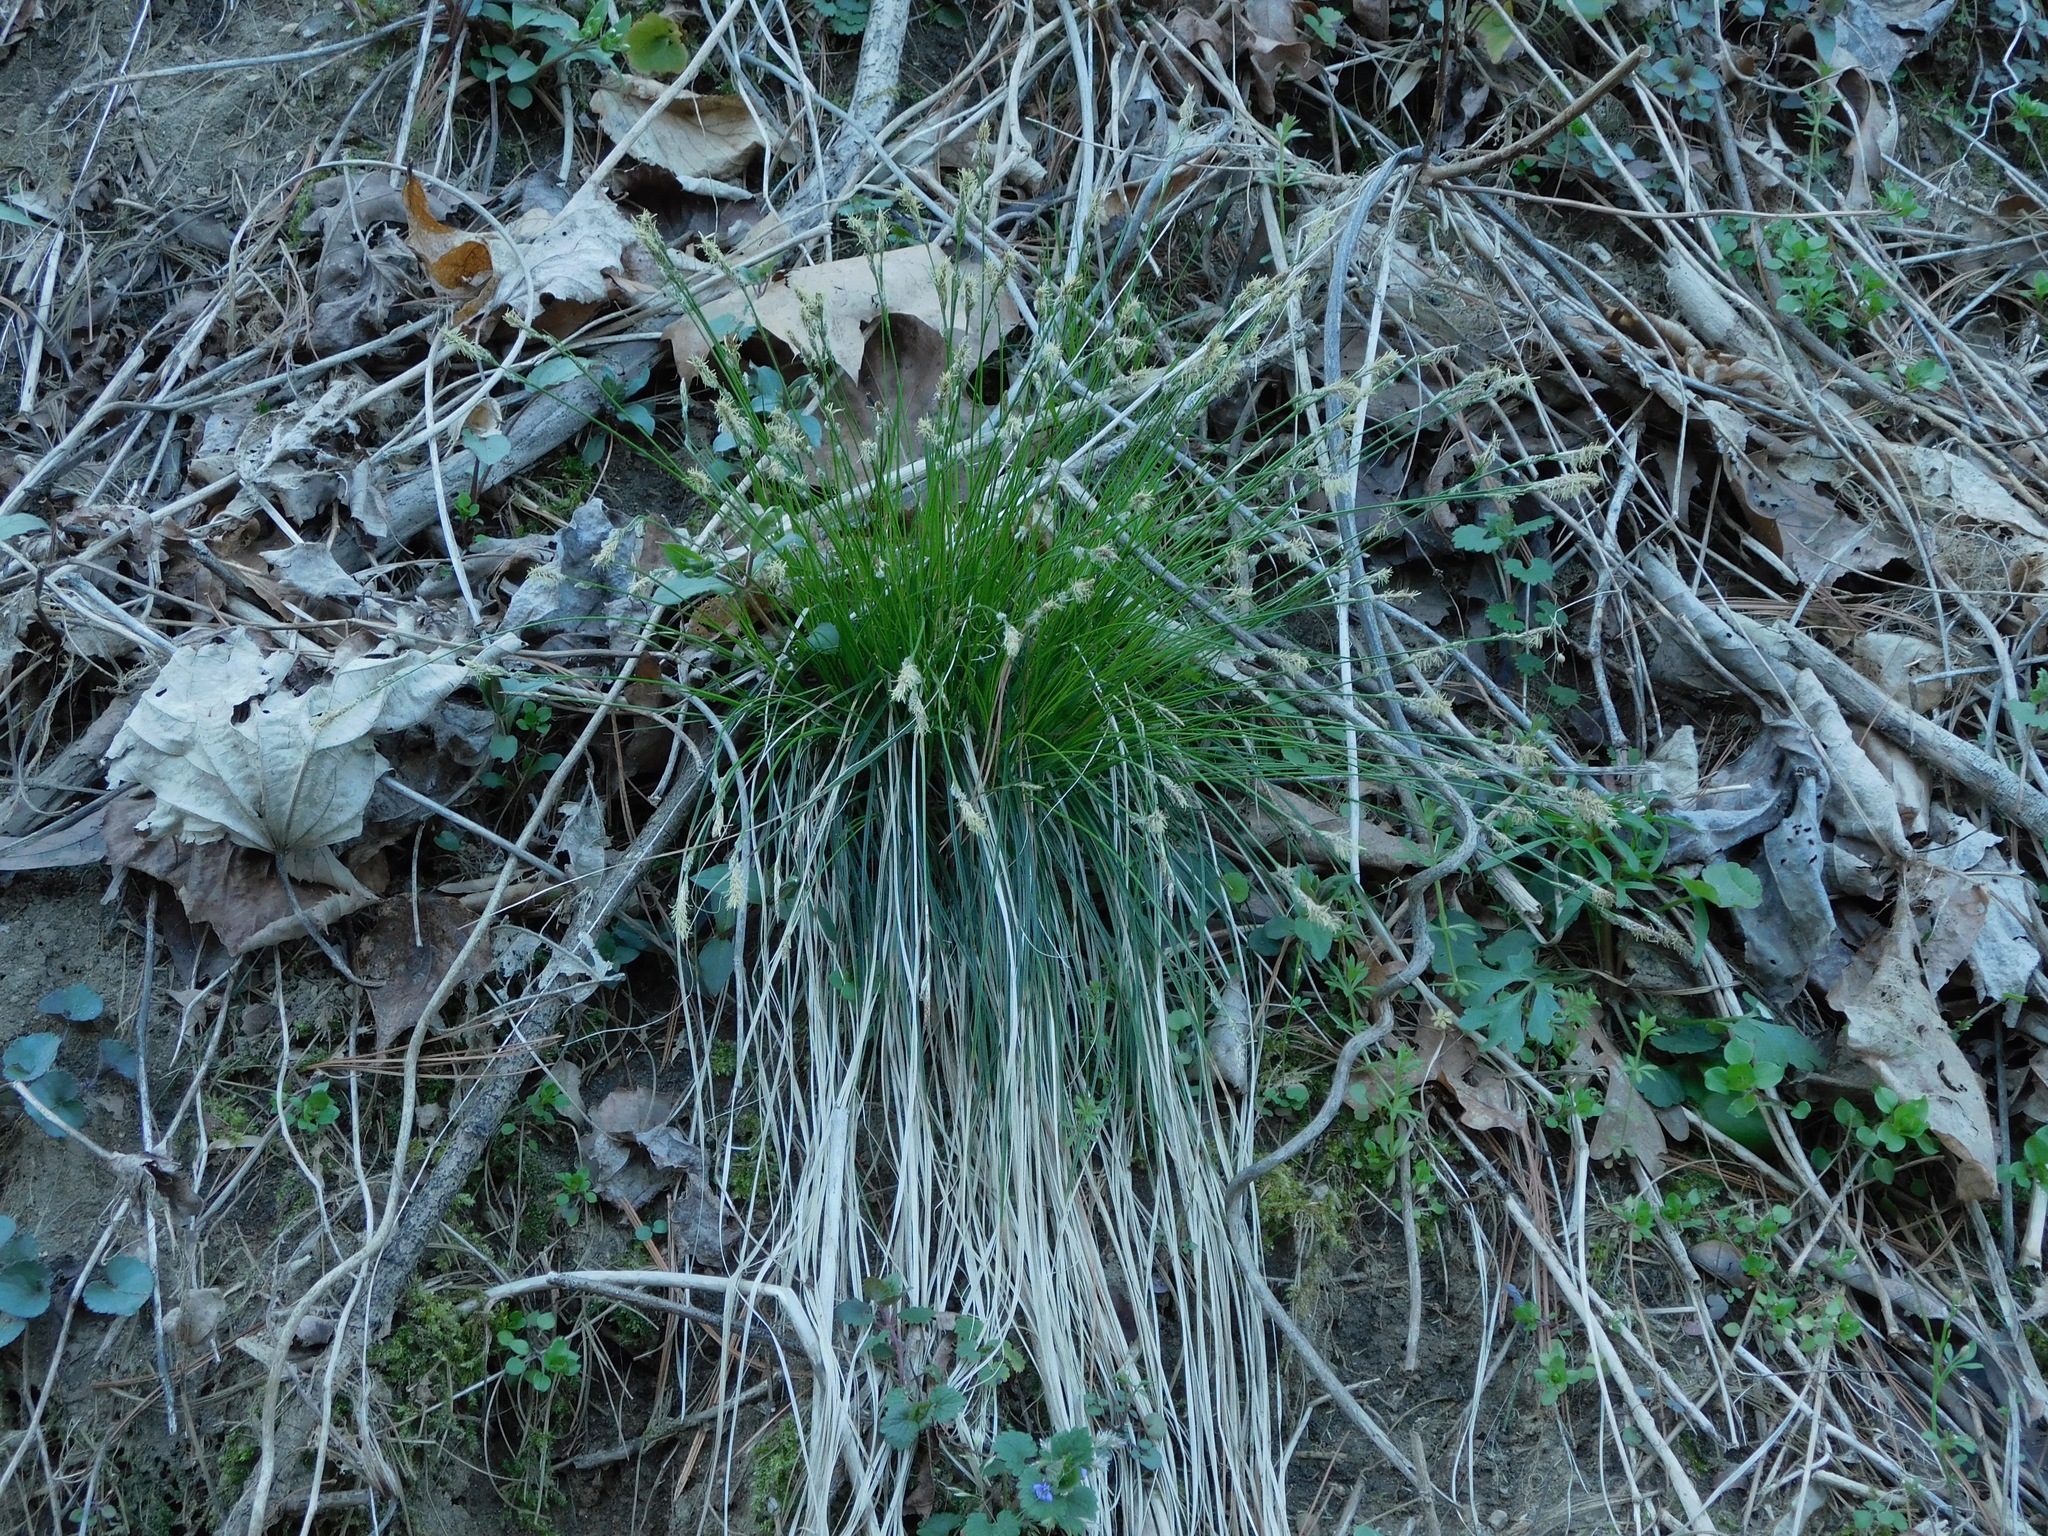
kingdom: Plantae
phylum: Tracheophyta
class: Liliopsida
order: Poales
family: Cyperaceae
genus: Carex
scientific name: Carex pensylvanica
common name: Common oak sedge
